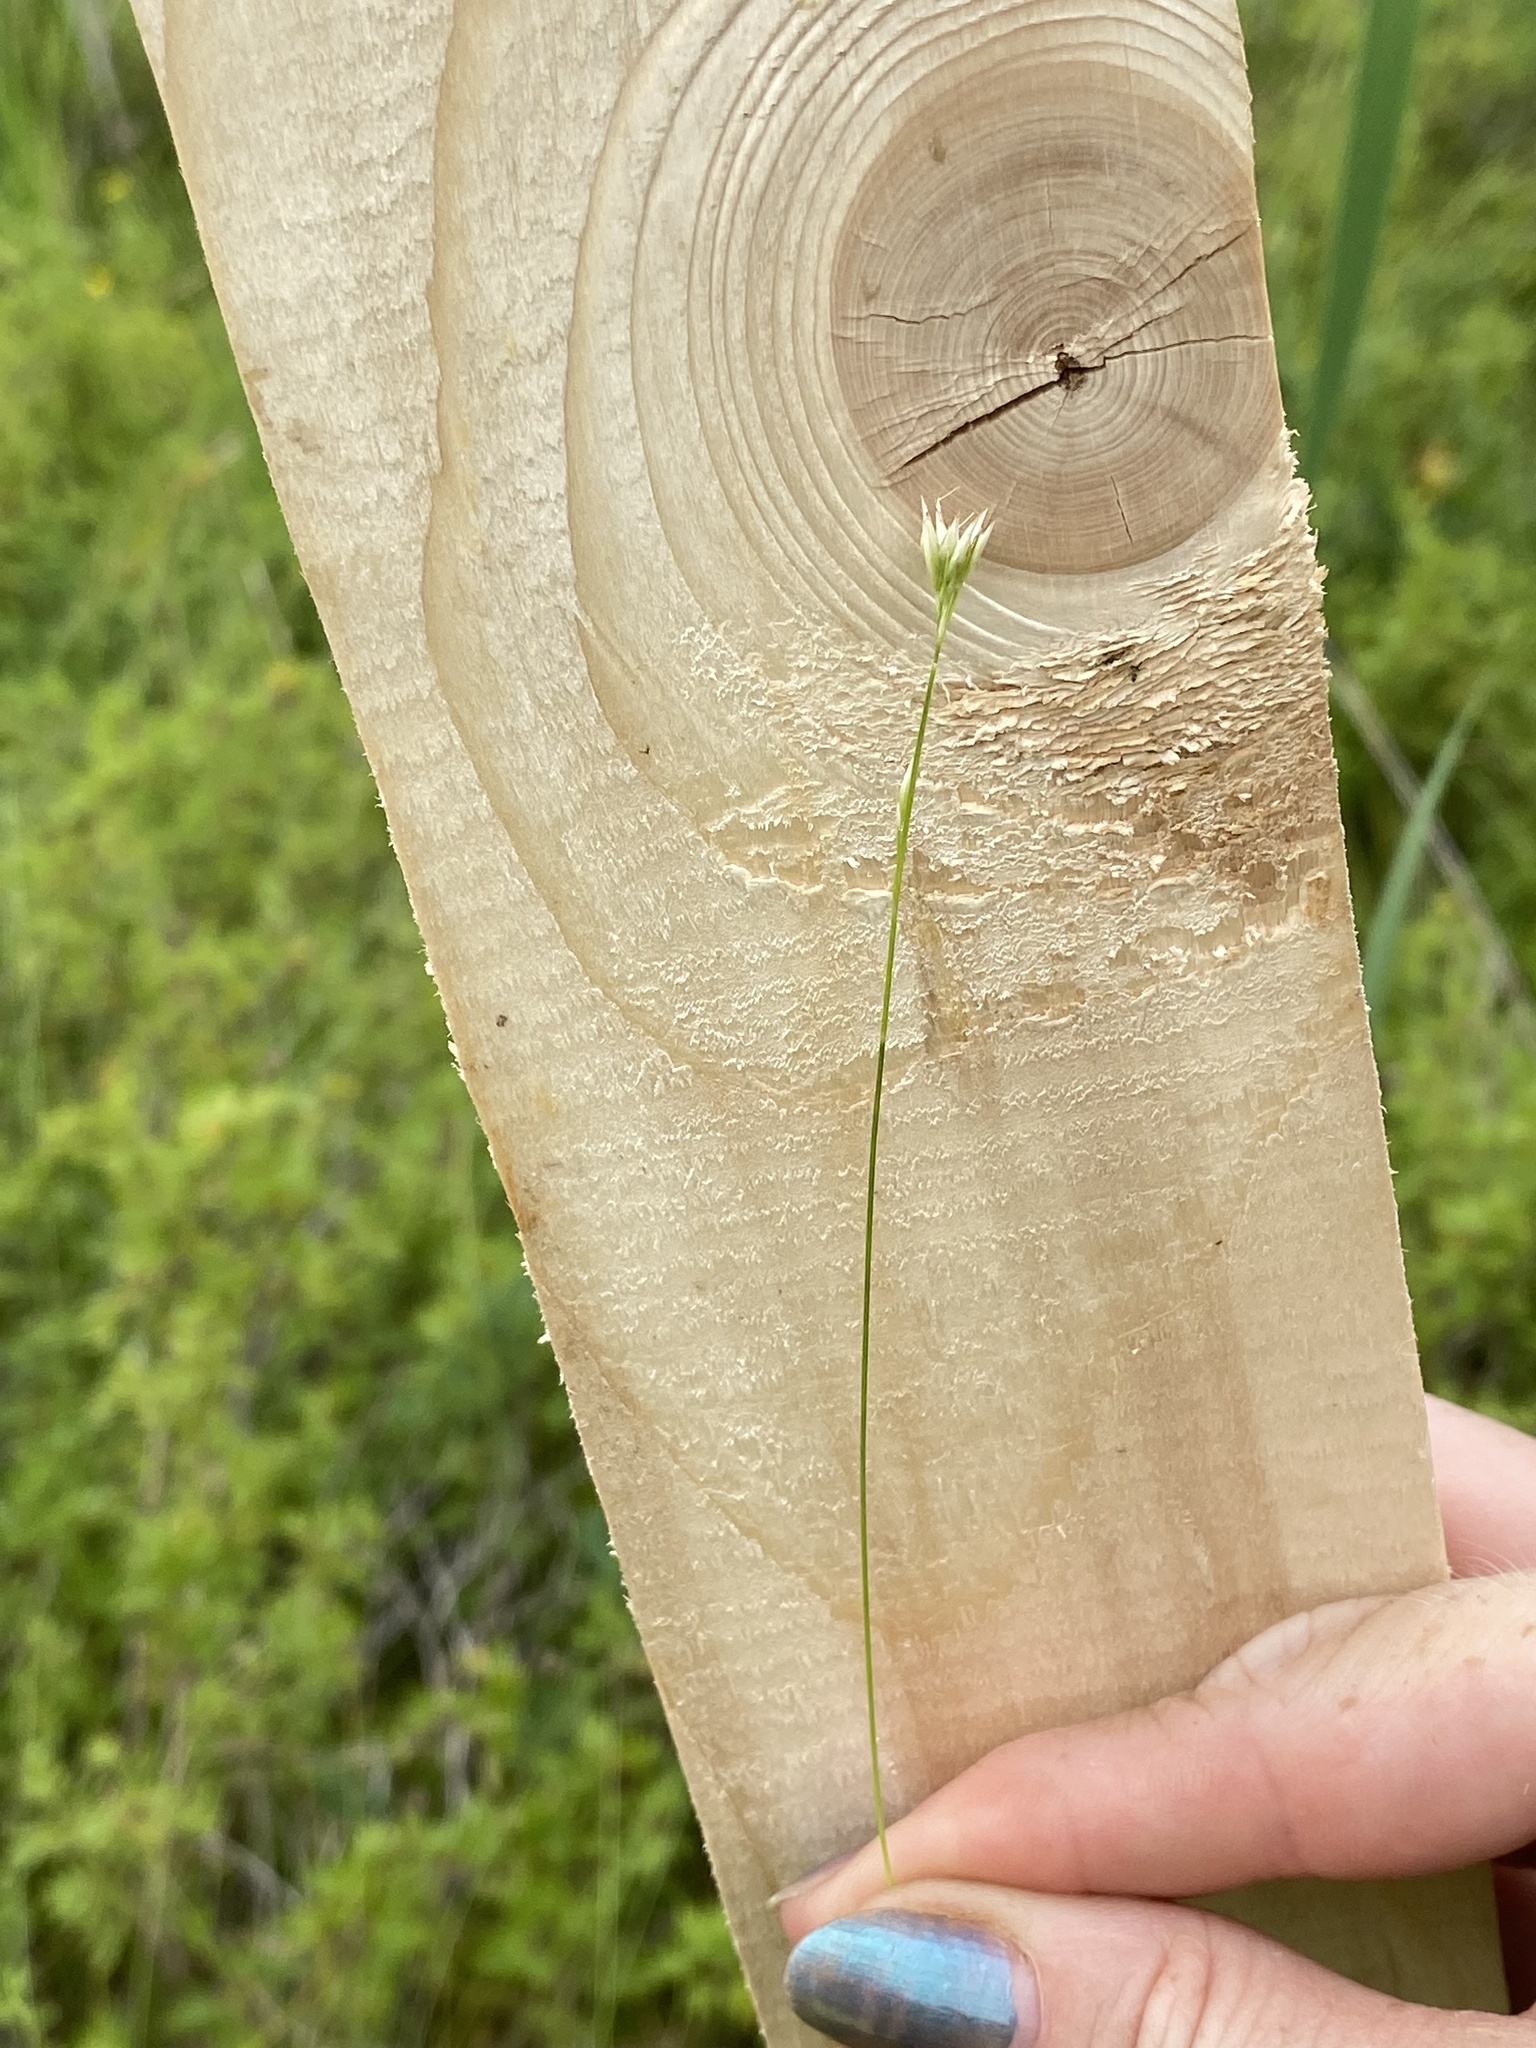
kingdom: Plantae
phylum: Tracheophyta
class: Liliopsida
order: Poales
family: Cyperaceae
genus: Rhynchospora
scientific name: Rhynchospora alba
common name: White beak-sedge
